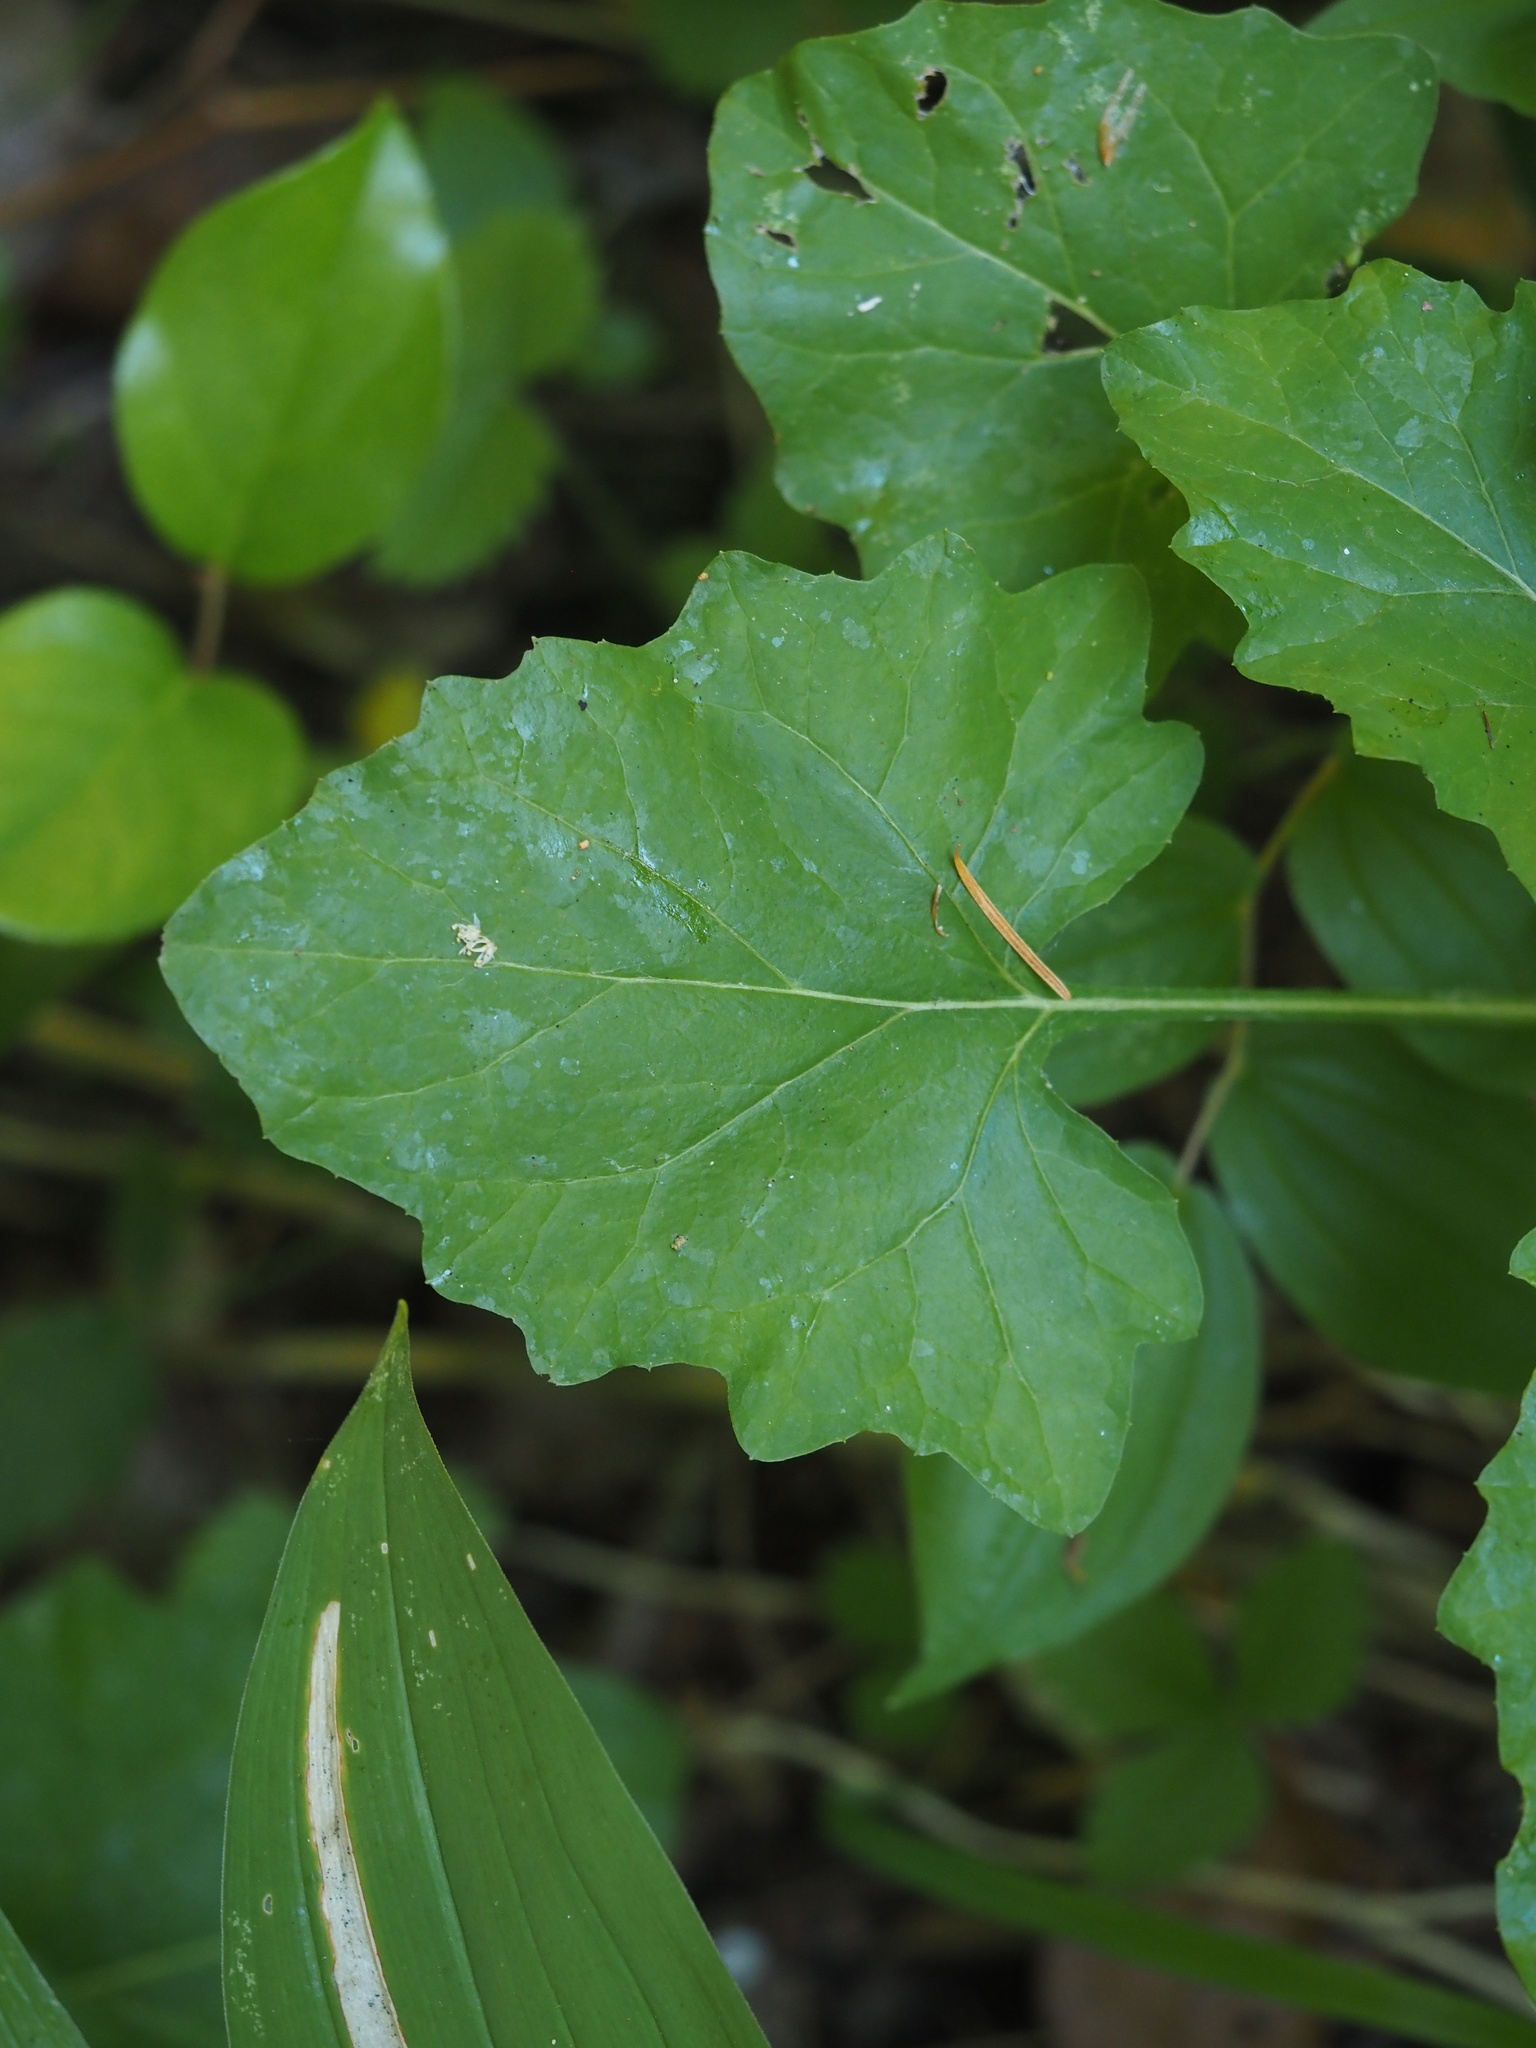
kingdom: Plantae
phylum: Tracheophyta
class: Magnoliopsida
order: Asterales
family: Asteraceae
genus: Adenocaulon
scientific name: Adenocaulon bicolor
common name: Trailplant
